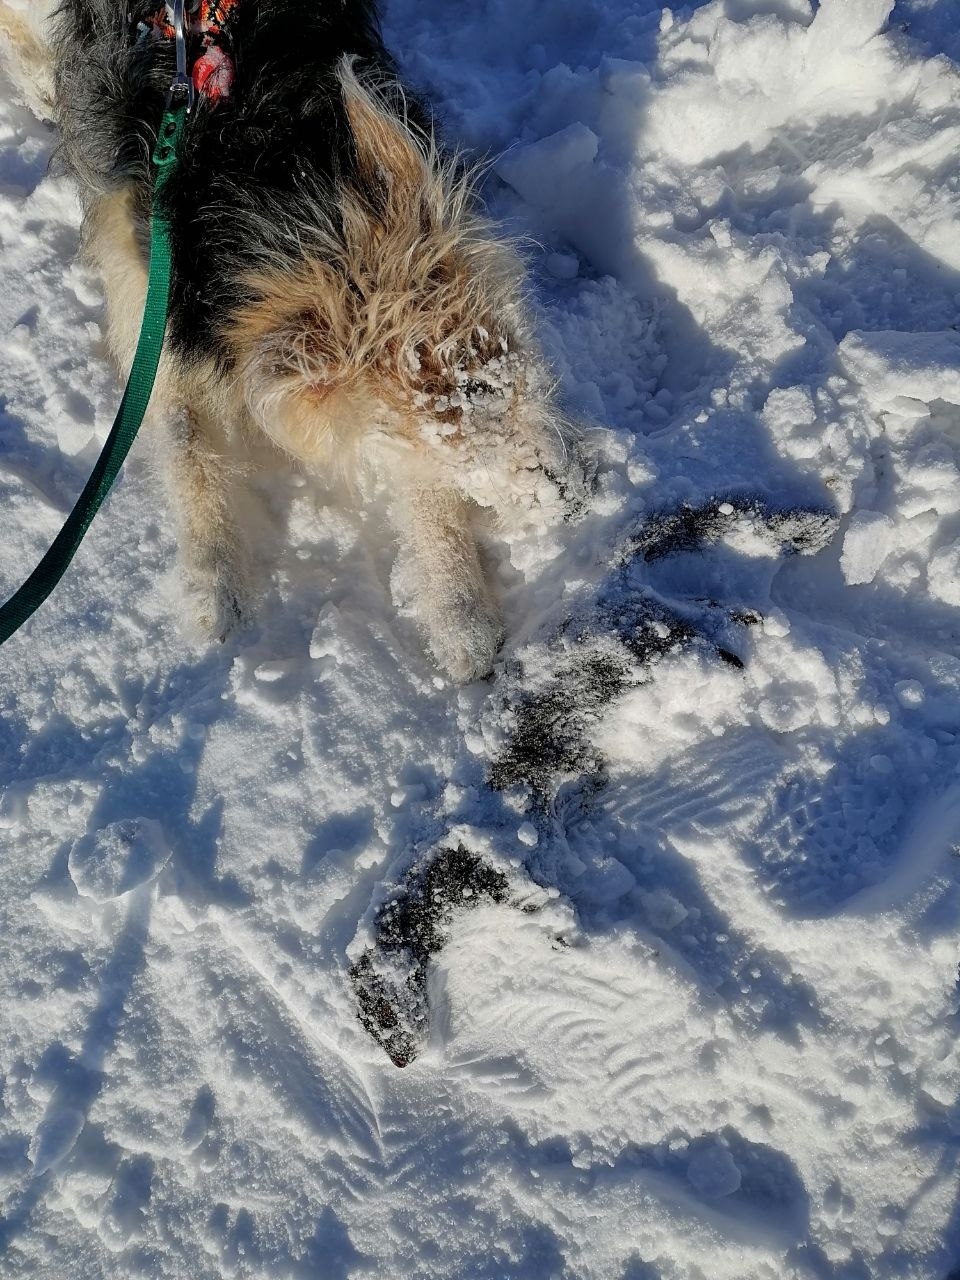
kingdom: Animalia
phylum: Chordata
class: Mammalia
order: Carnivora
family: Mustelidae
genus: Mustela
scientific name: Mustela
